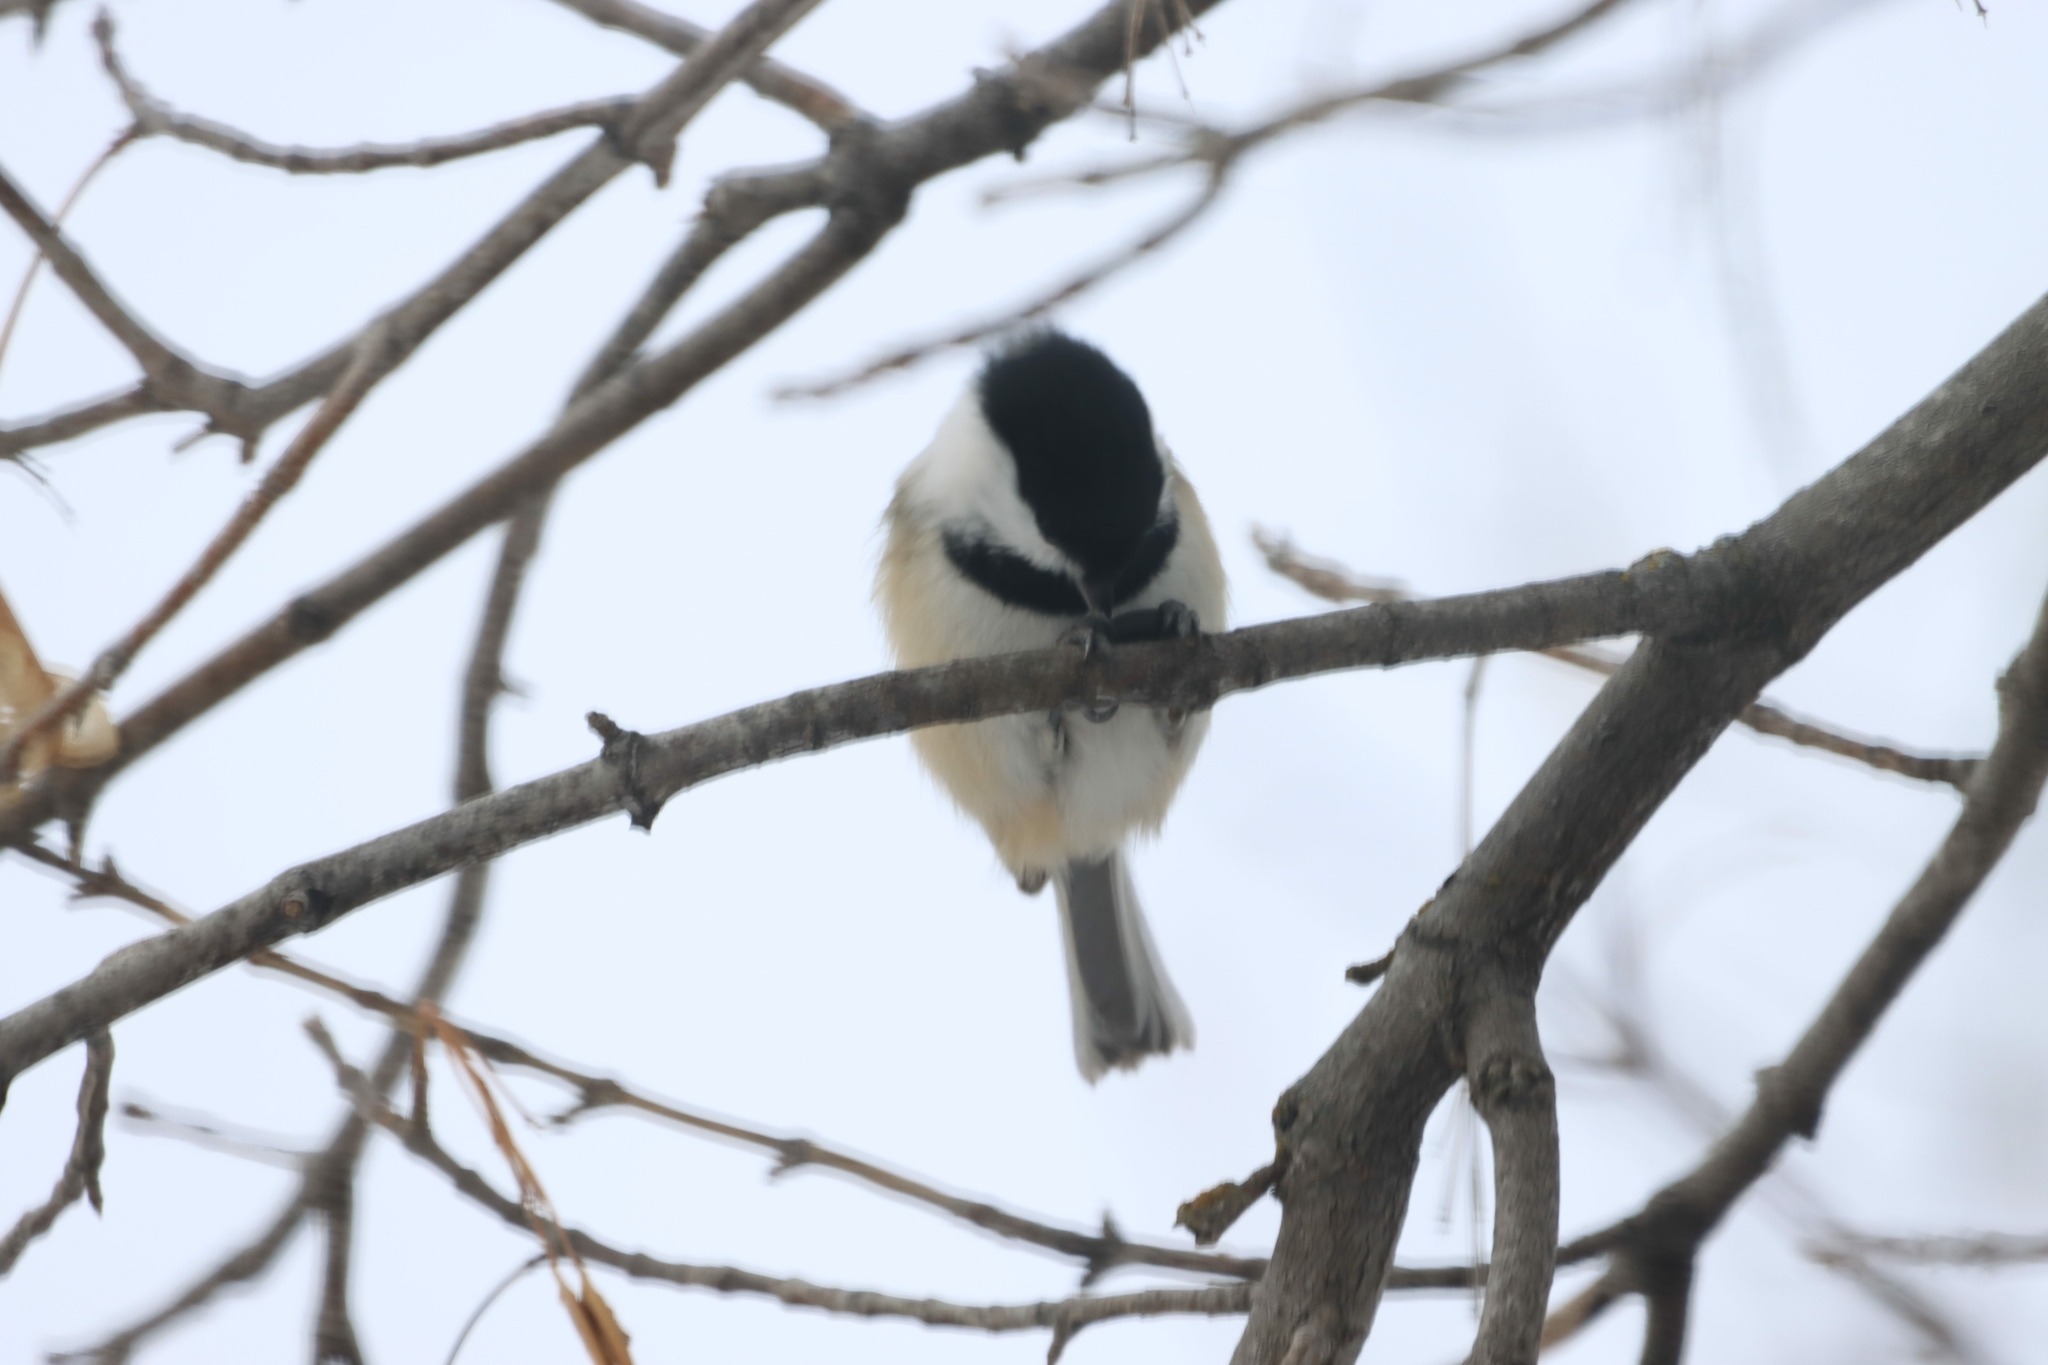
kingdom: Animalia
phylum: Chordata
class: Aves
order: Passeriformes
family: Paridae
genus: Poecile
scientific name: Poecile atricapillus
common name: Black-capped chickadee
